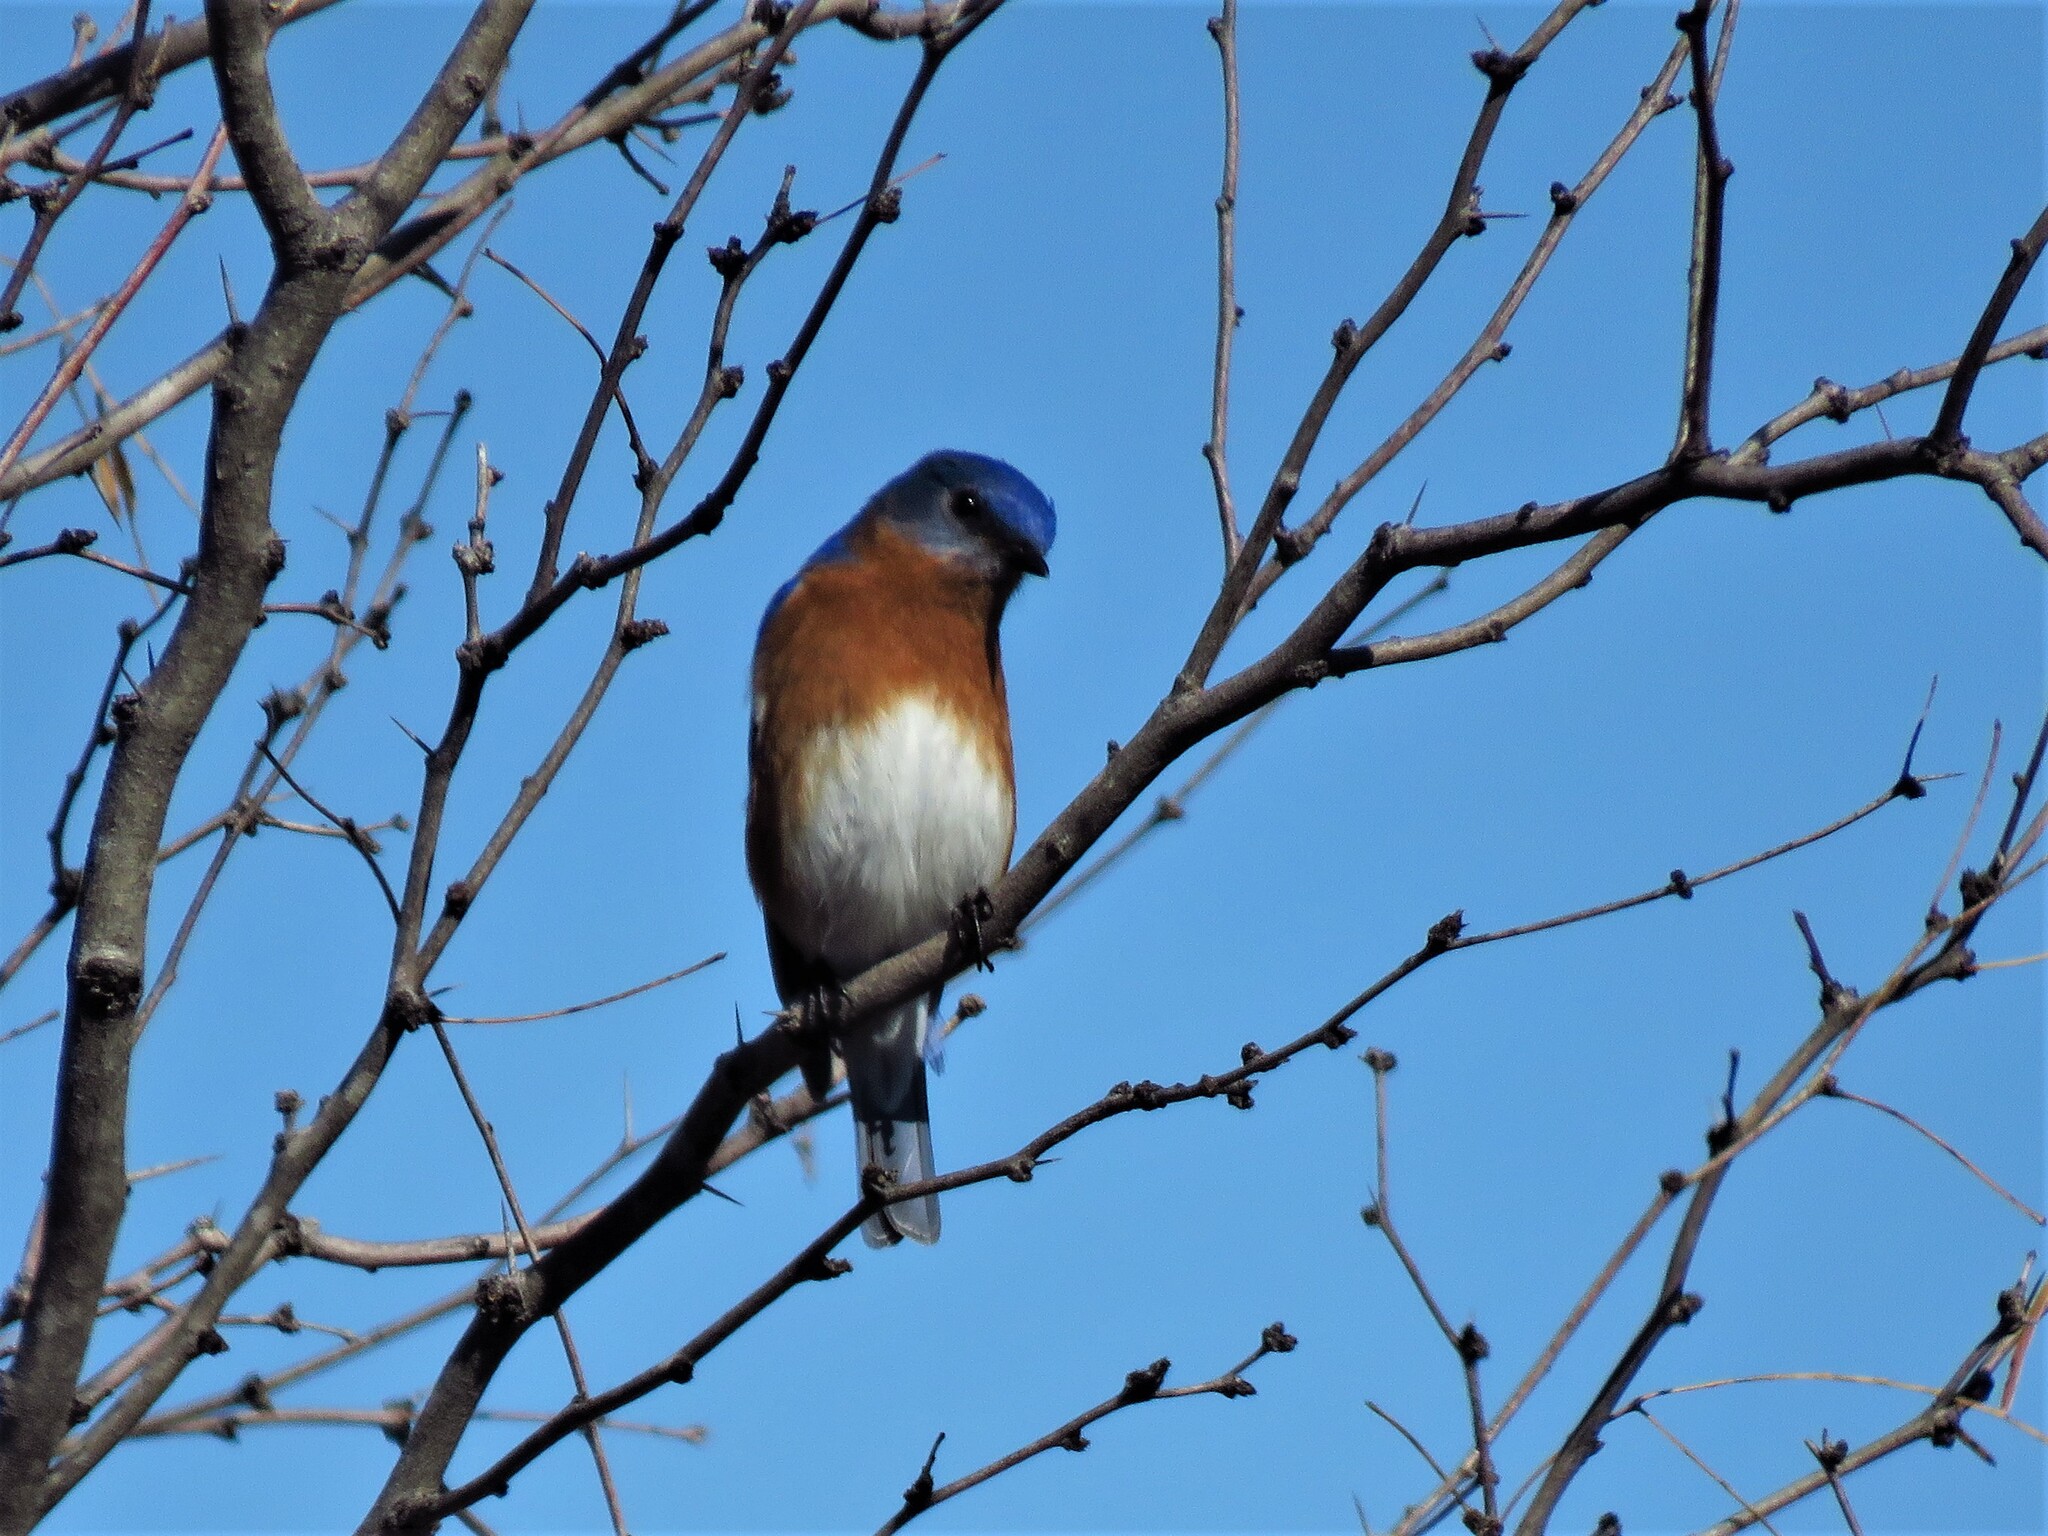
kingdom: Animalia
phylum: Chordata
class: Aves
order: Passeriformes
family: Turdidae
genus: Sialia
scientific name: Sialia sialis
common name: Eastern bluebird
